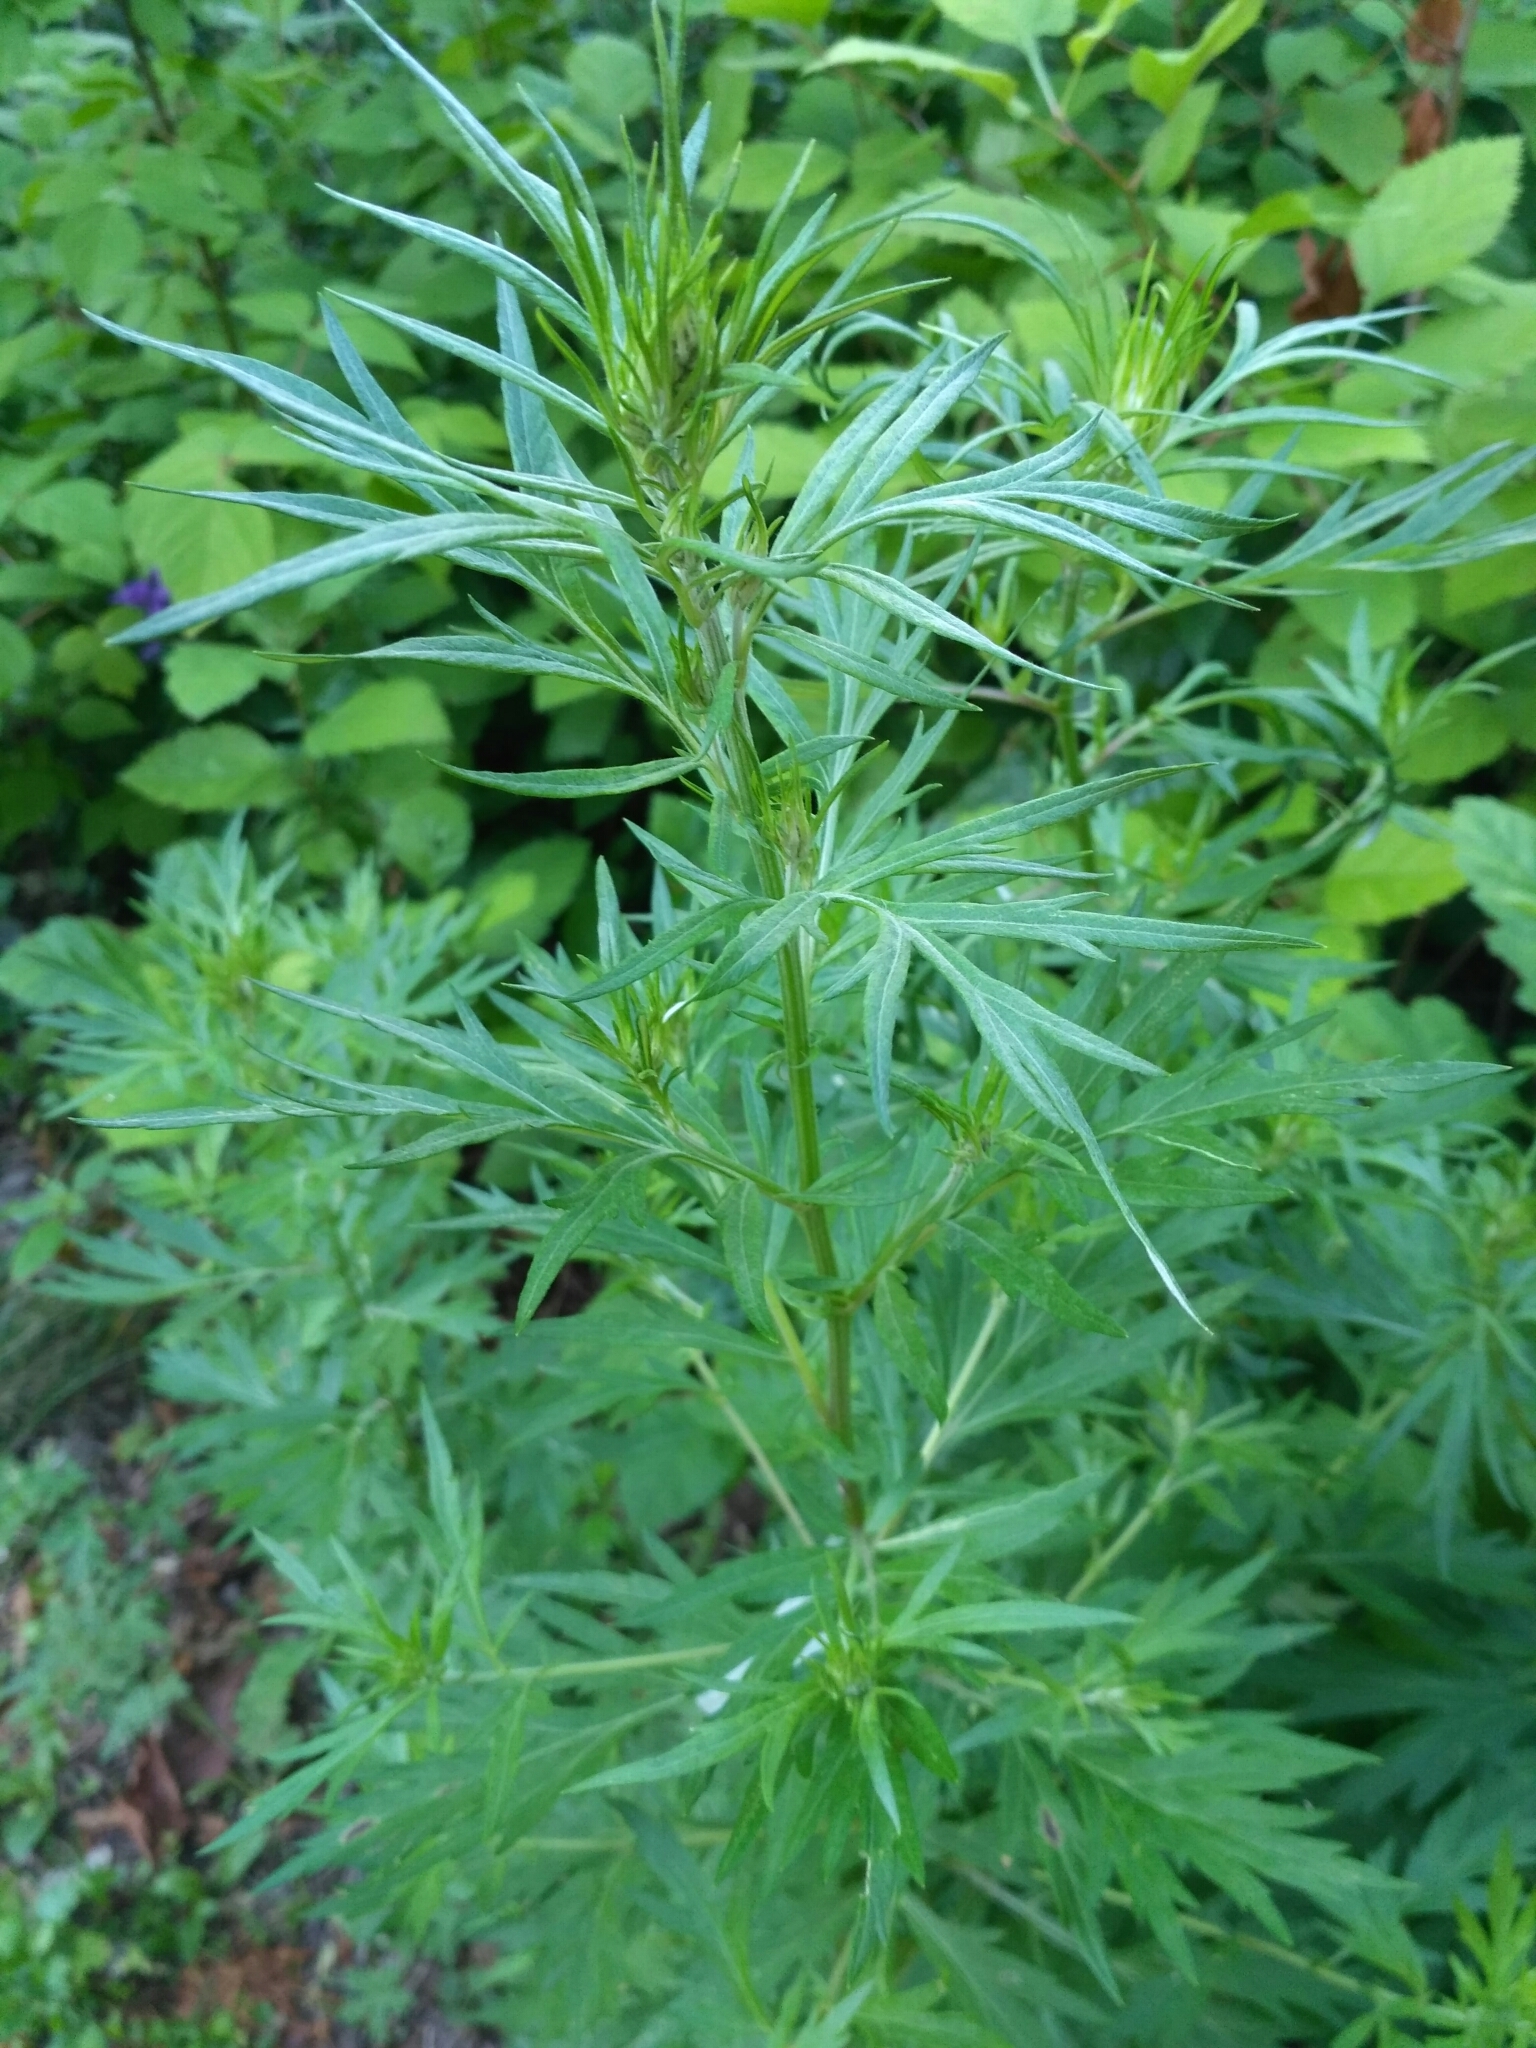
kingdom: Plantae
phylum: Tracheophyta
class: Magnoliopsida
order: Asterales
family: Asteraceae
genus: Artemisia
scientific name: Artemisia vulgaris
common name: Mugwort
